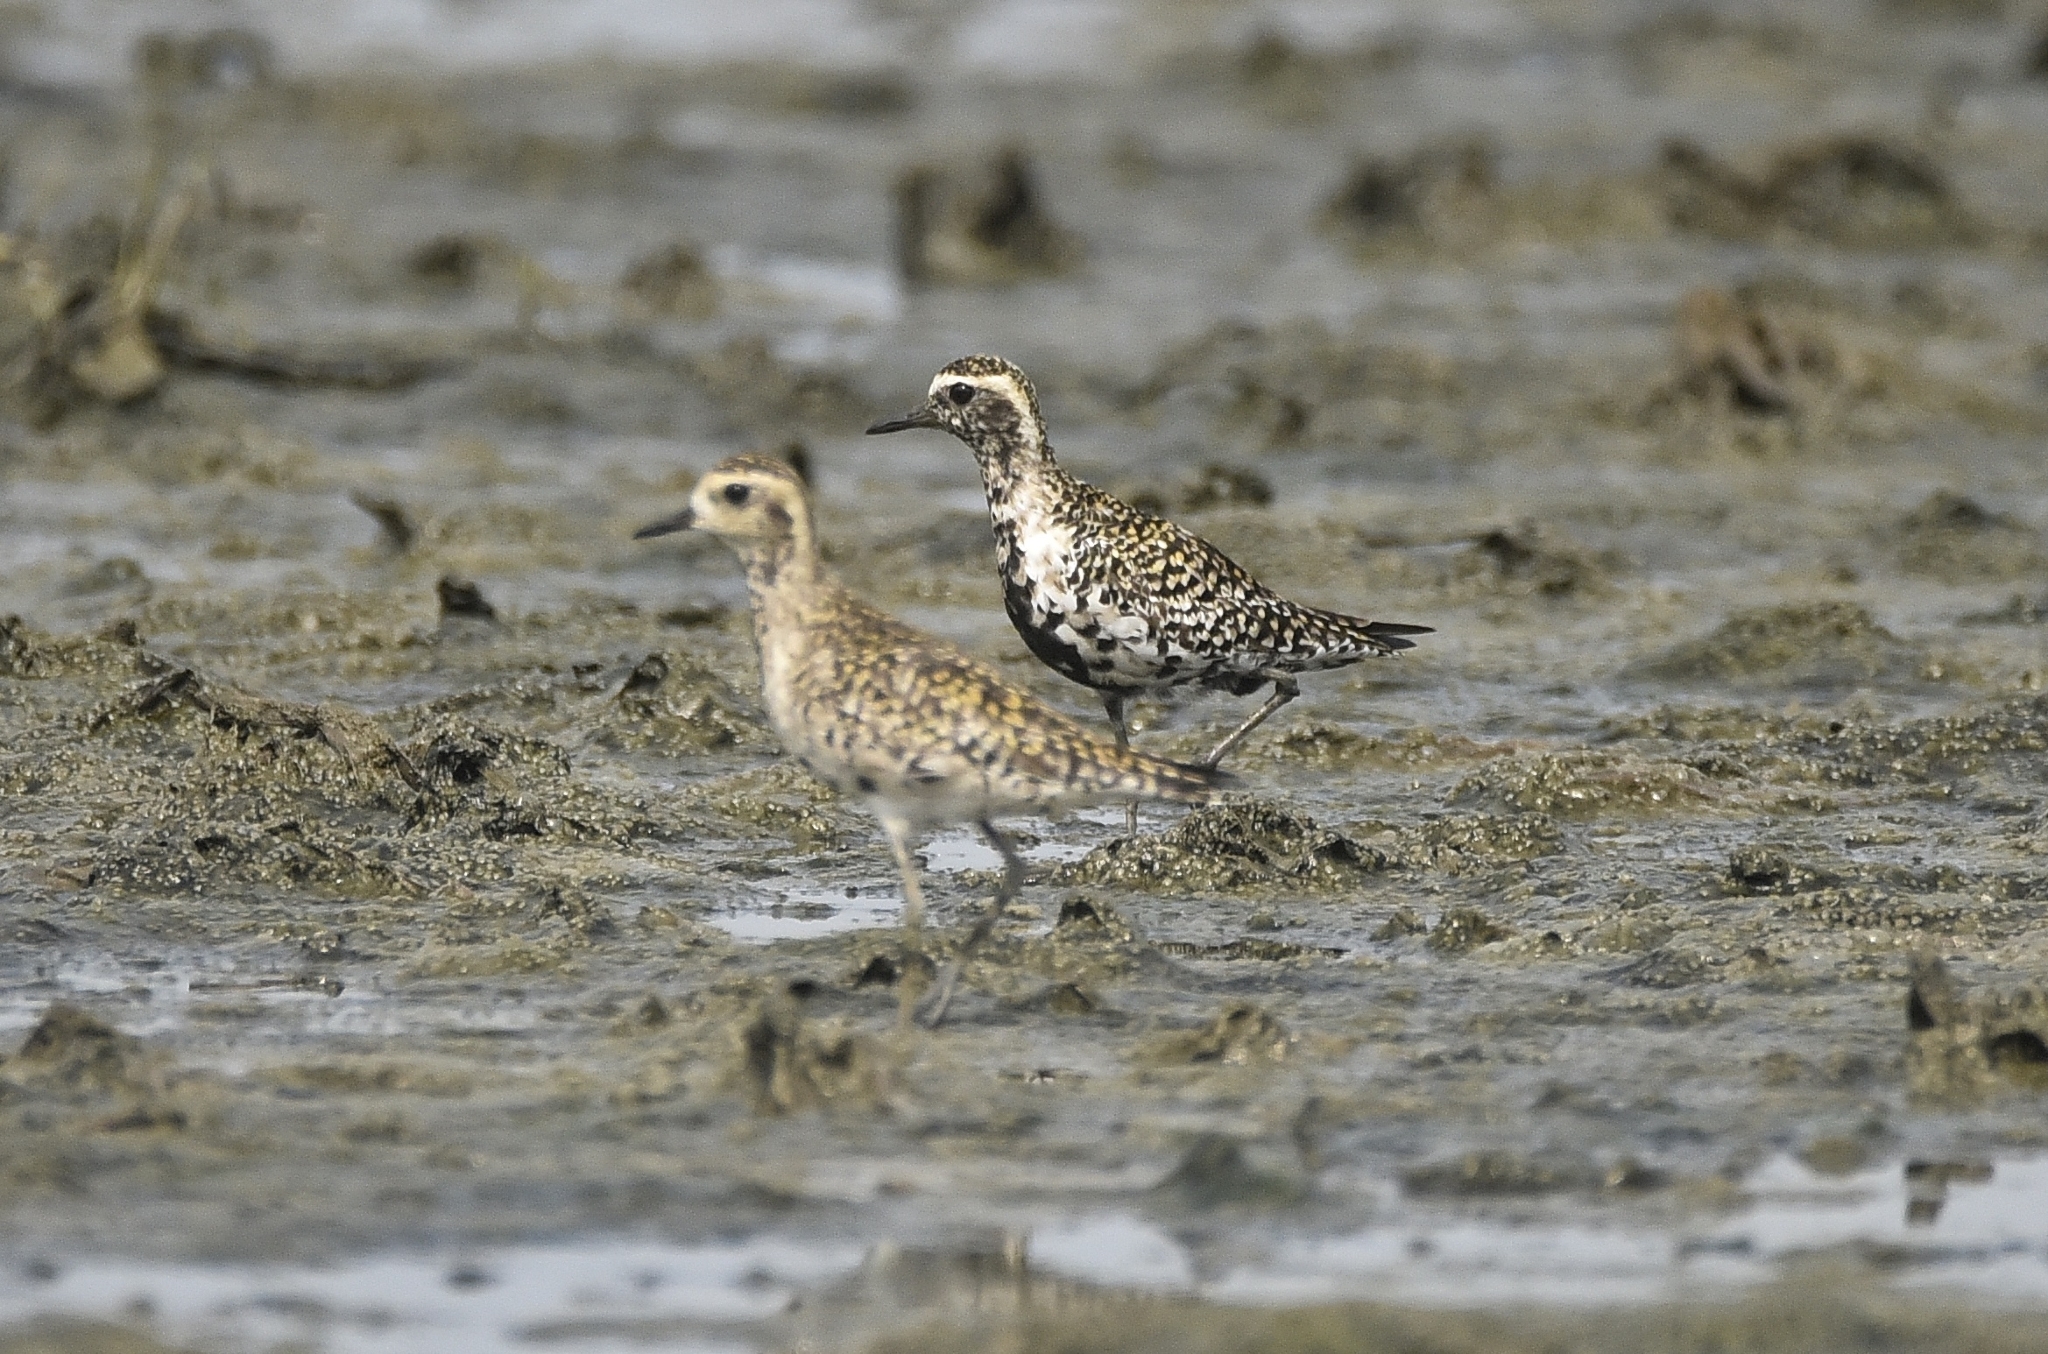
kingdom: Animalia
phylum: Chordata
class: Aves
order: Charadriiformes
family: Charadriidae
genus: Pluvialis
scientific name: Pluvialis fulva
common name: Pacific golden plover
